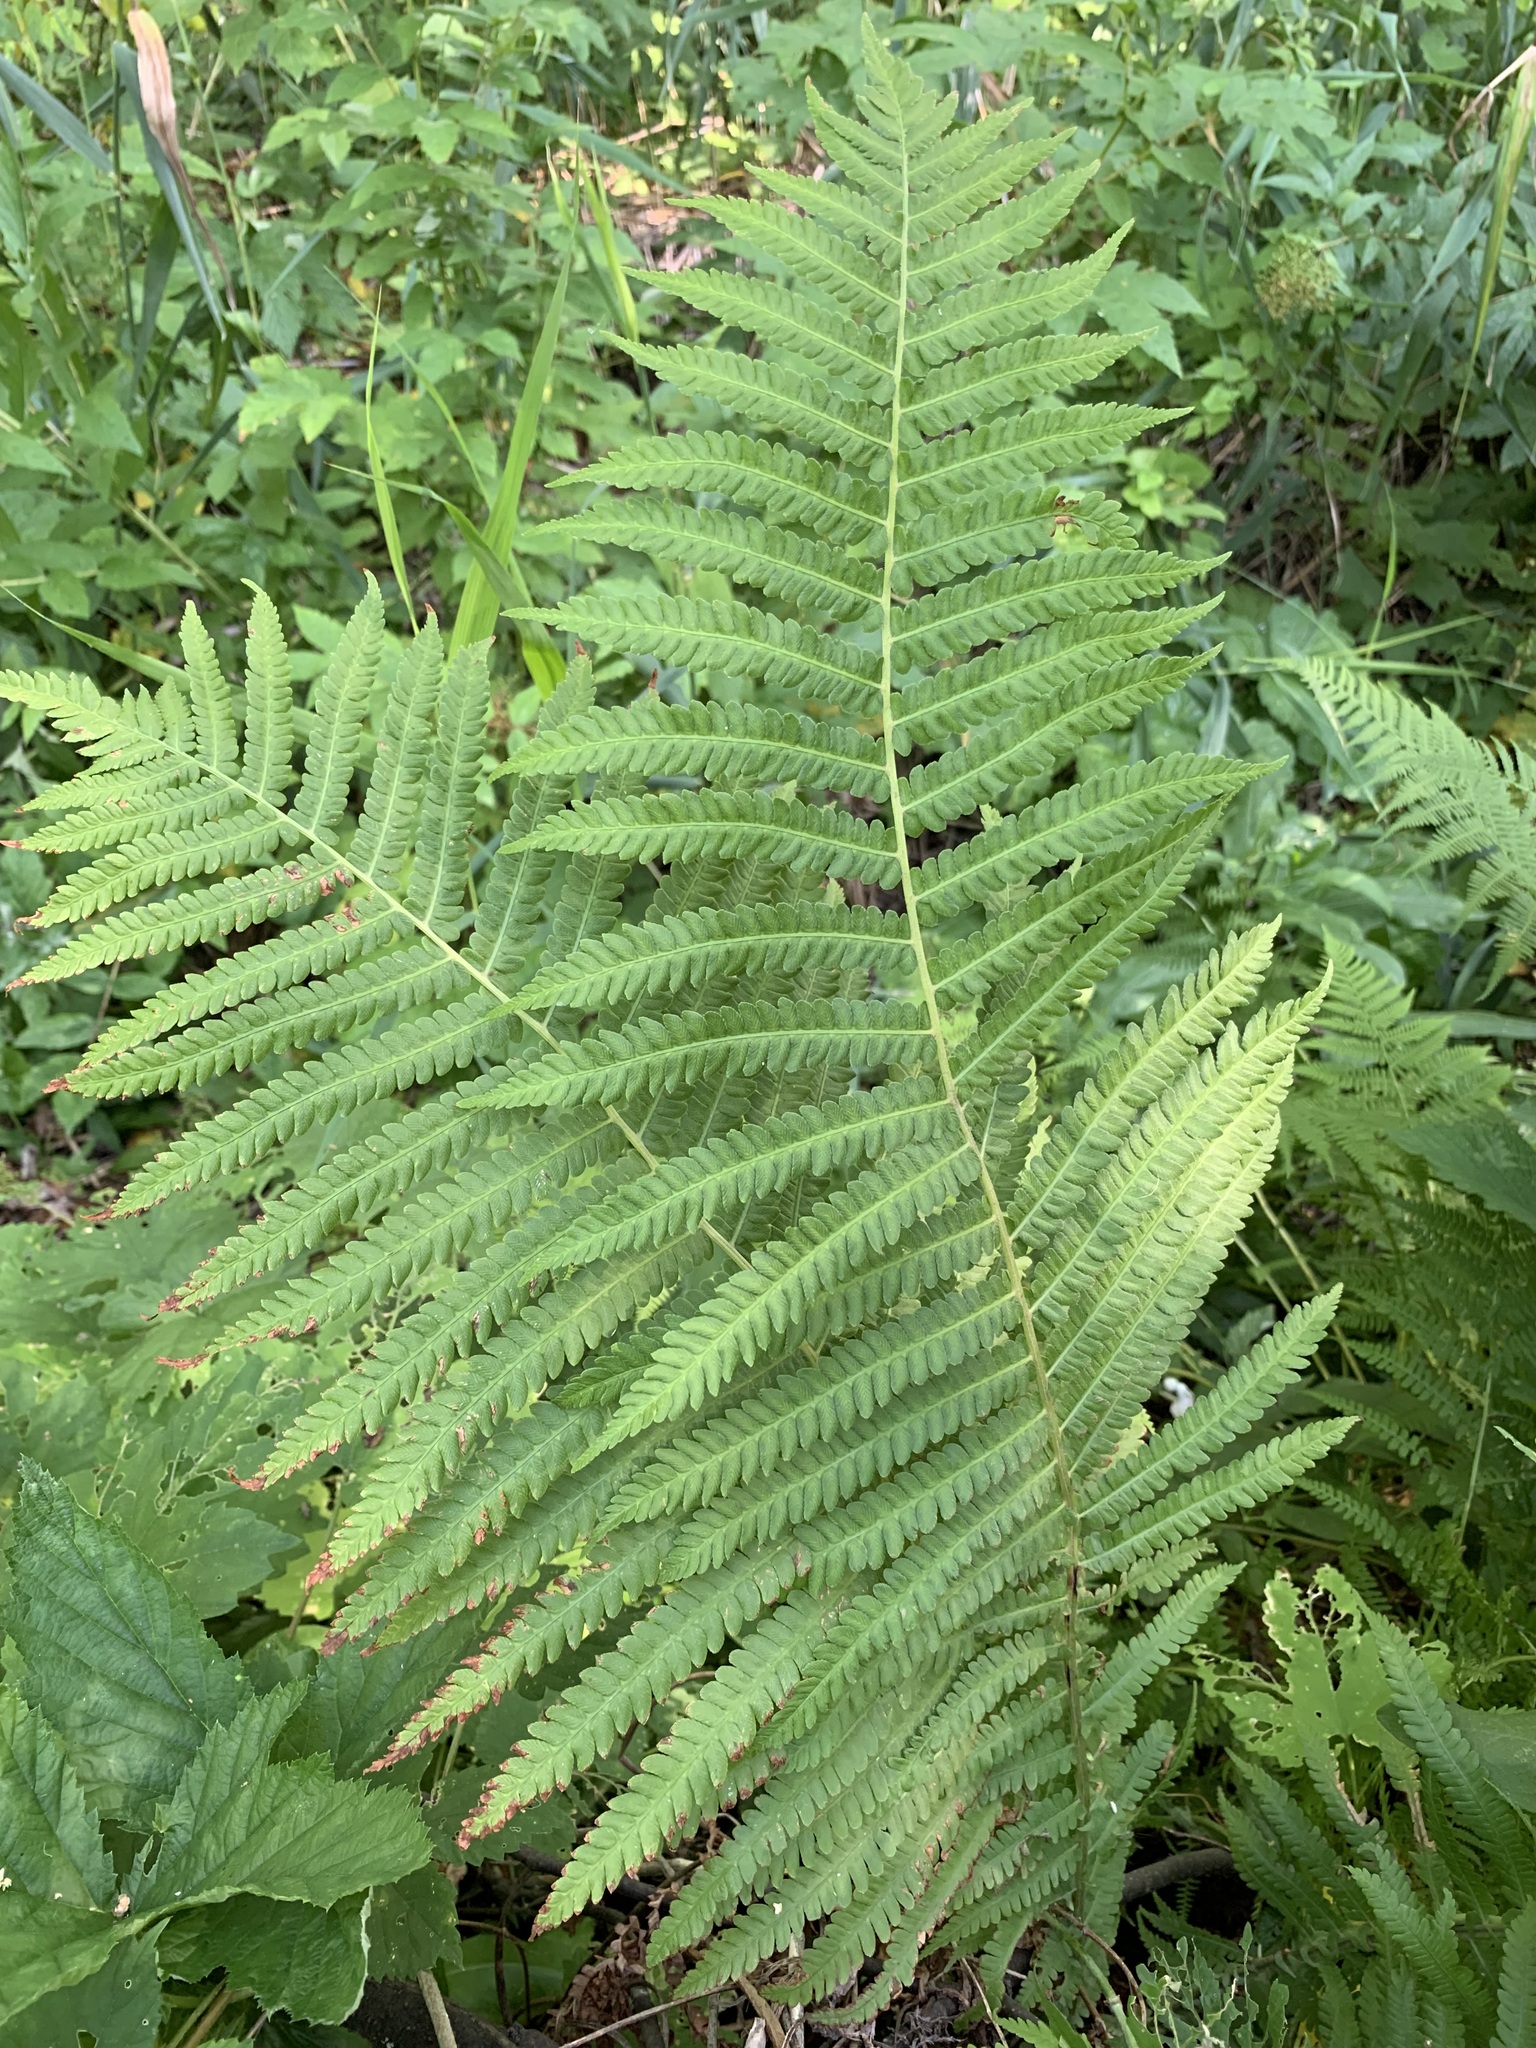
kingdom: Plantae
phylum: Tracheophyta
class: Polypodiopsida
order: Polypodiales
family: Onocleaceae
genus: Matteuccia
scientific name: Matteuccia struthiopteris
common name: Ostrich fern
